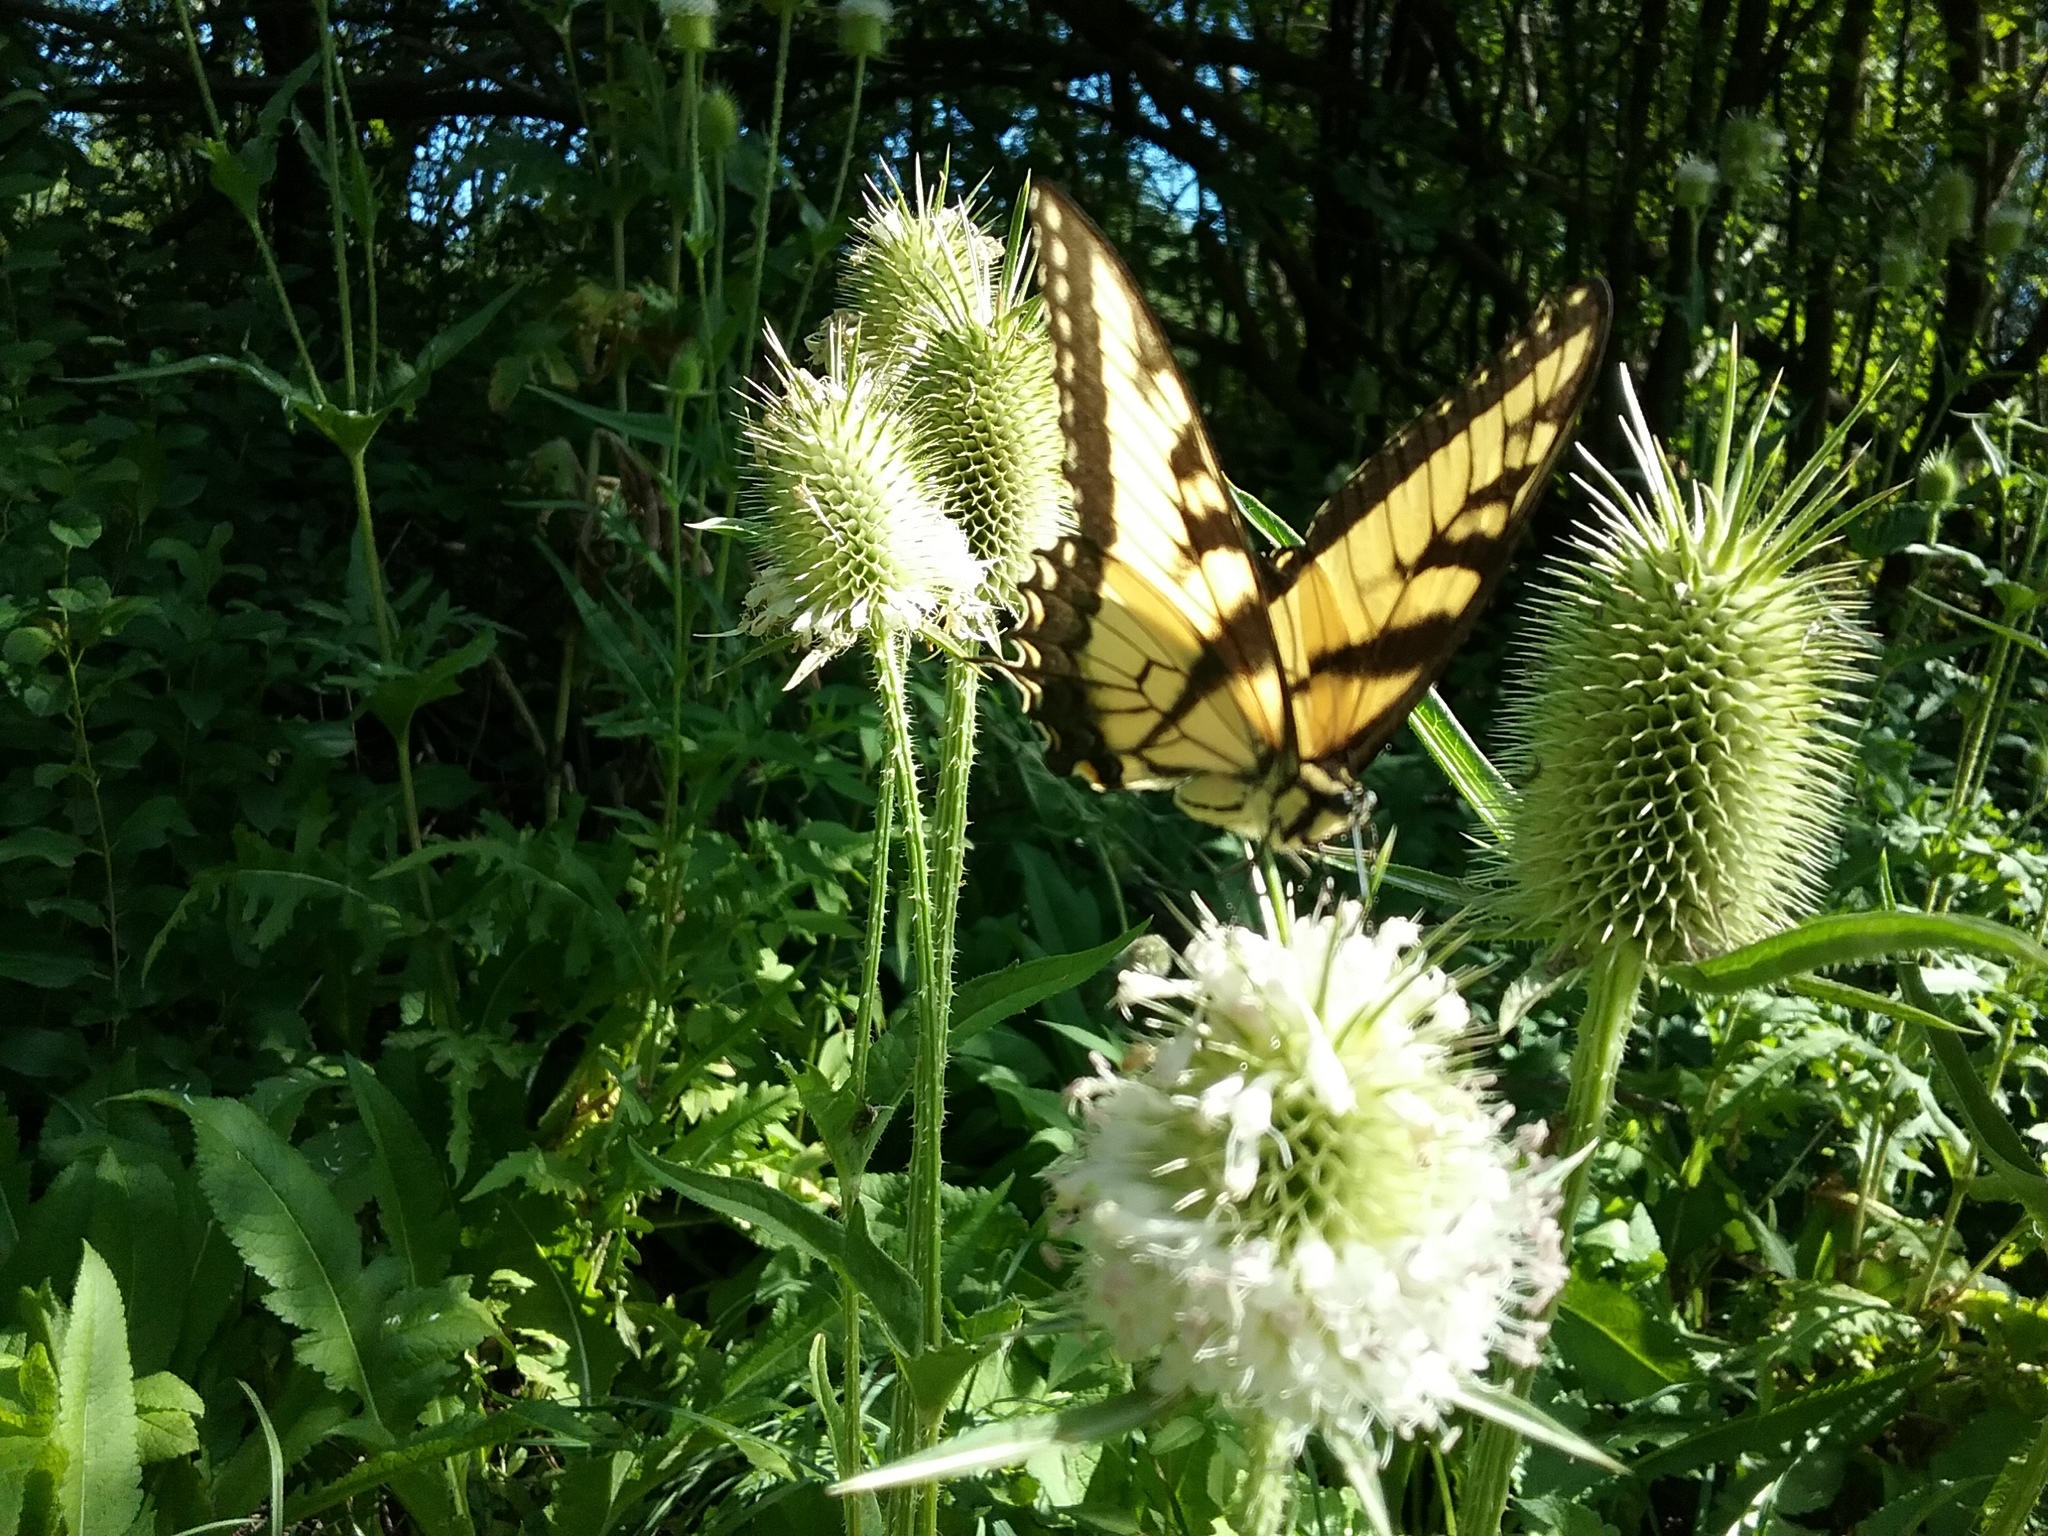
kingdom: Animalia
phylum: Arthropoda
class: Insecta
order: Lepidoptera
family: Papilionidae
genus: Papilio
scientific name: Papilio glaucus
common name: Tiger swallowtail
